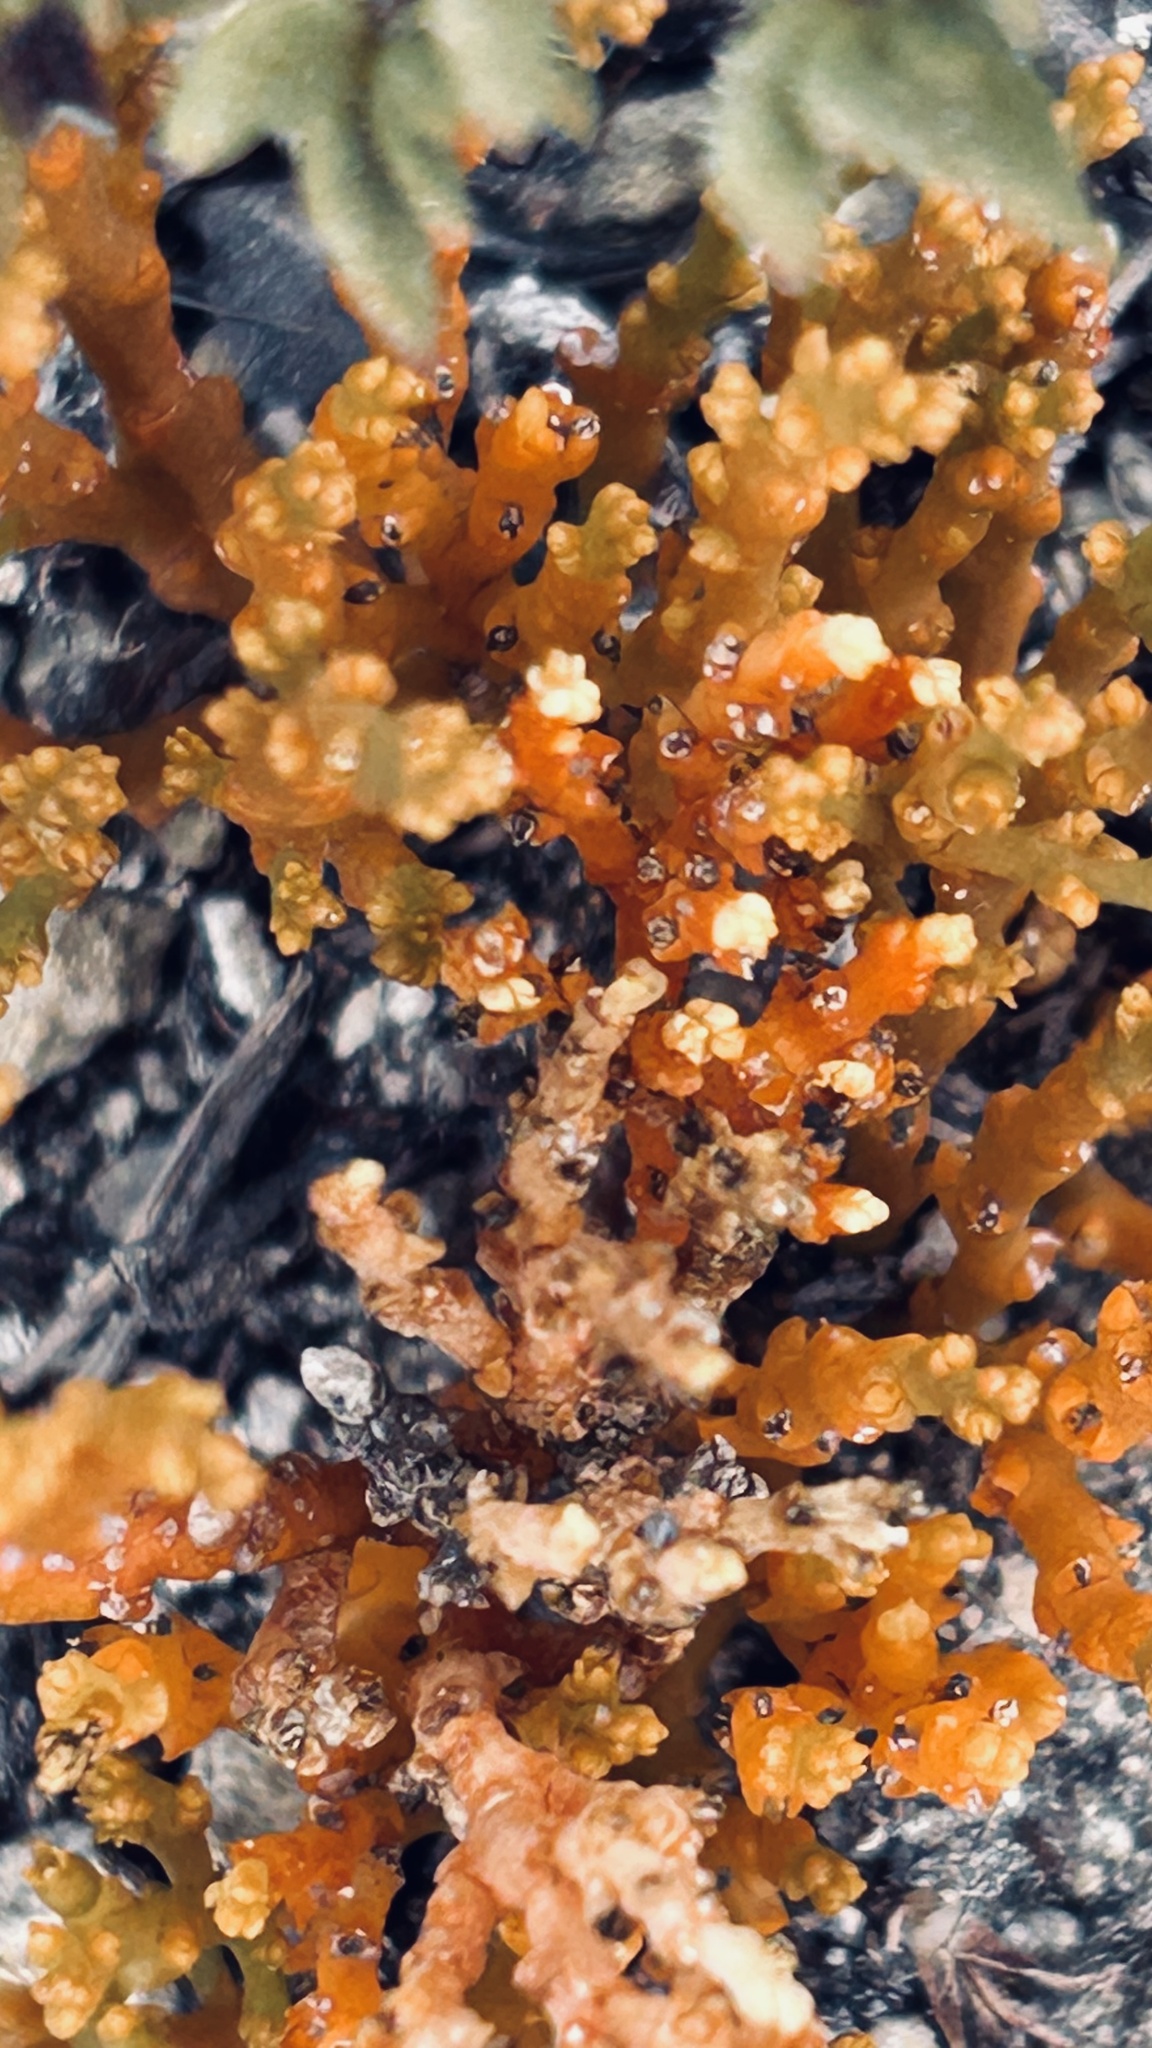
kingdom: Plantae
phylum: Tracheophyta
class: Magnoliopsida
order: Santalales
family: Thesiaceae
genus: Thesium
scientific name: Thesium fragile
